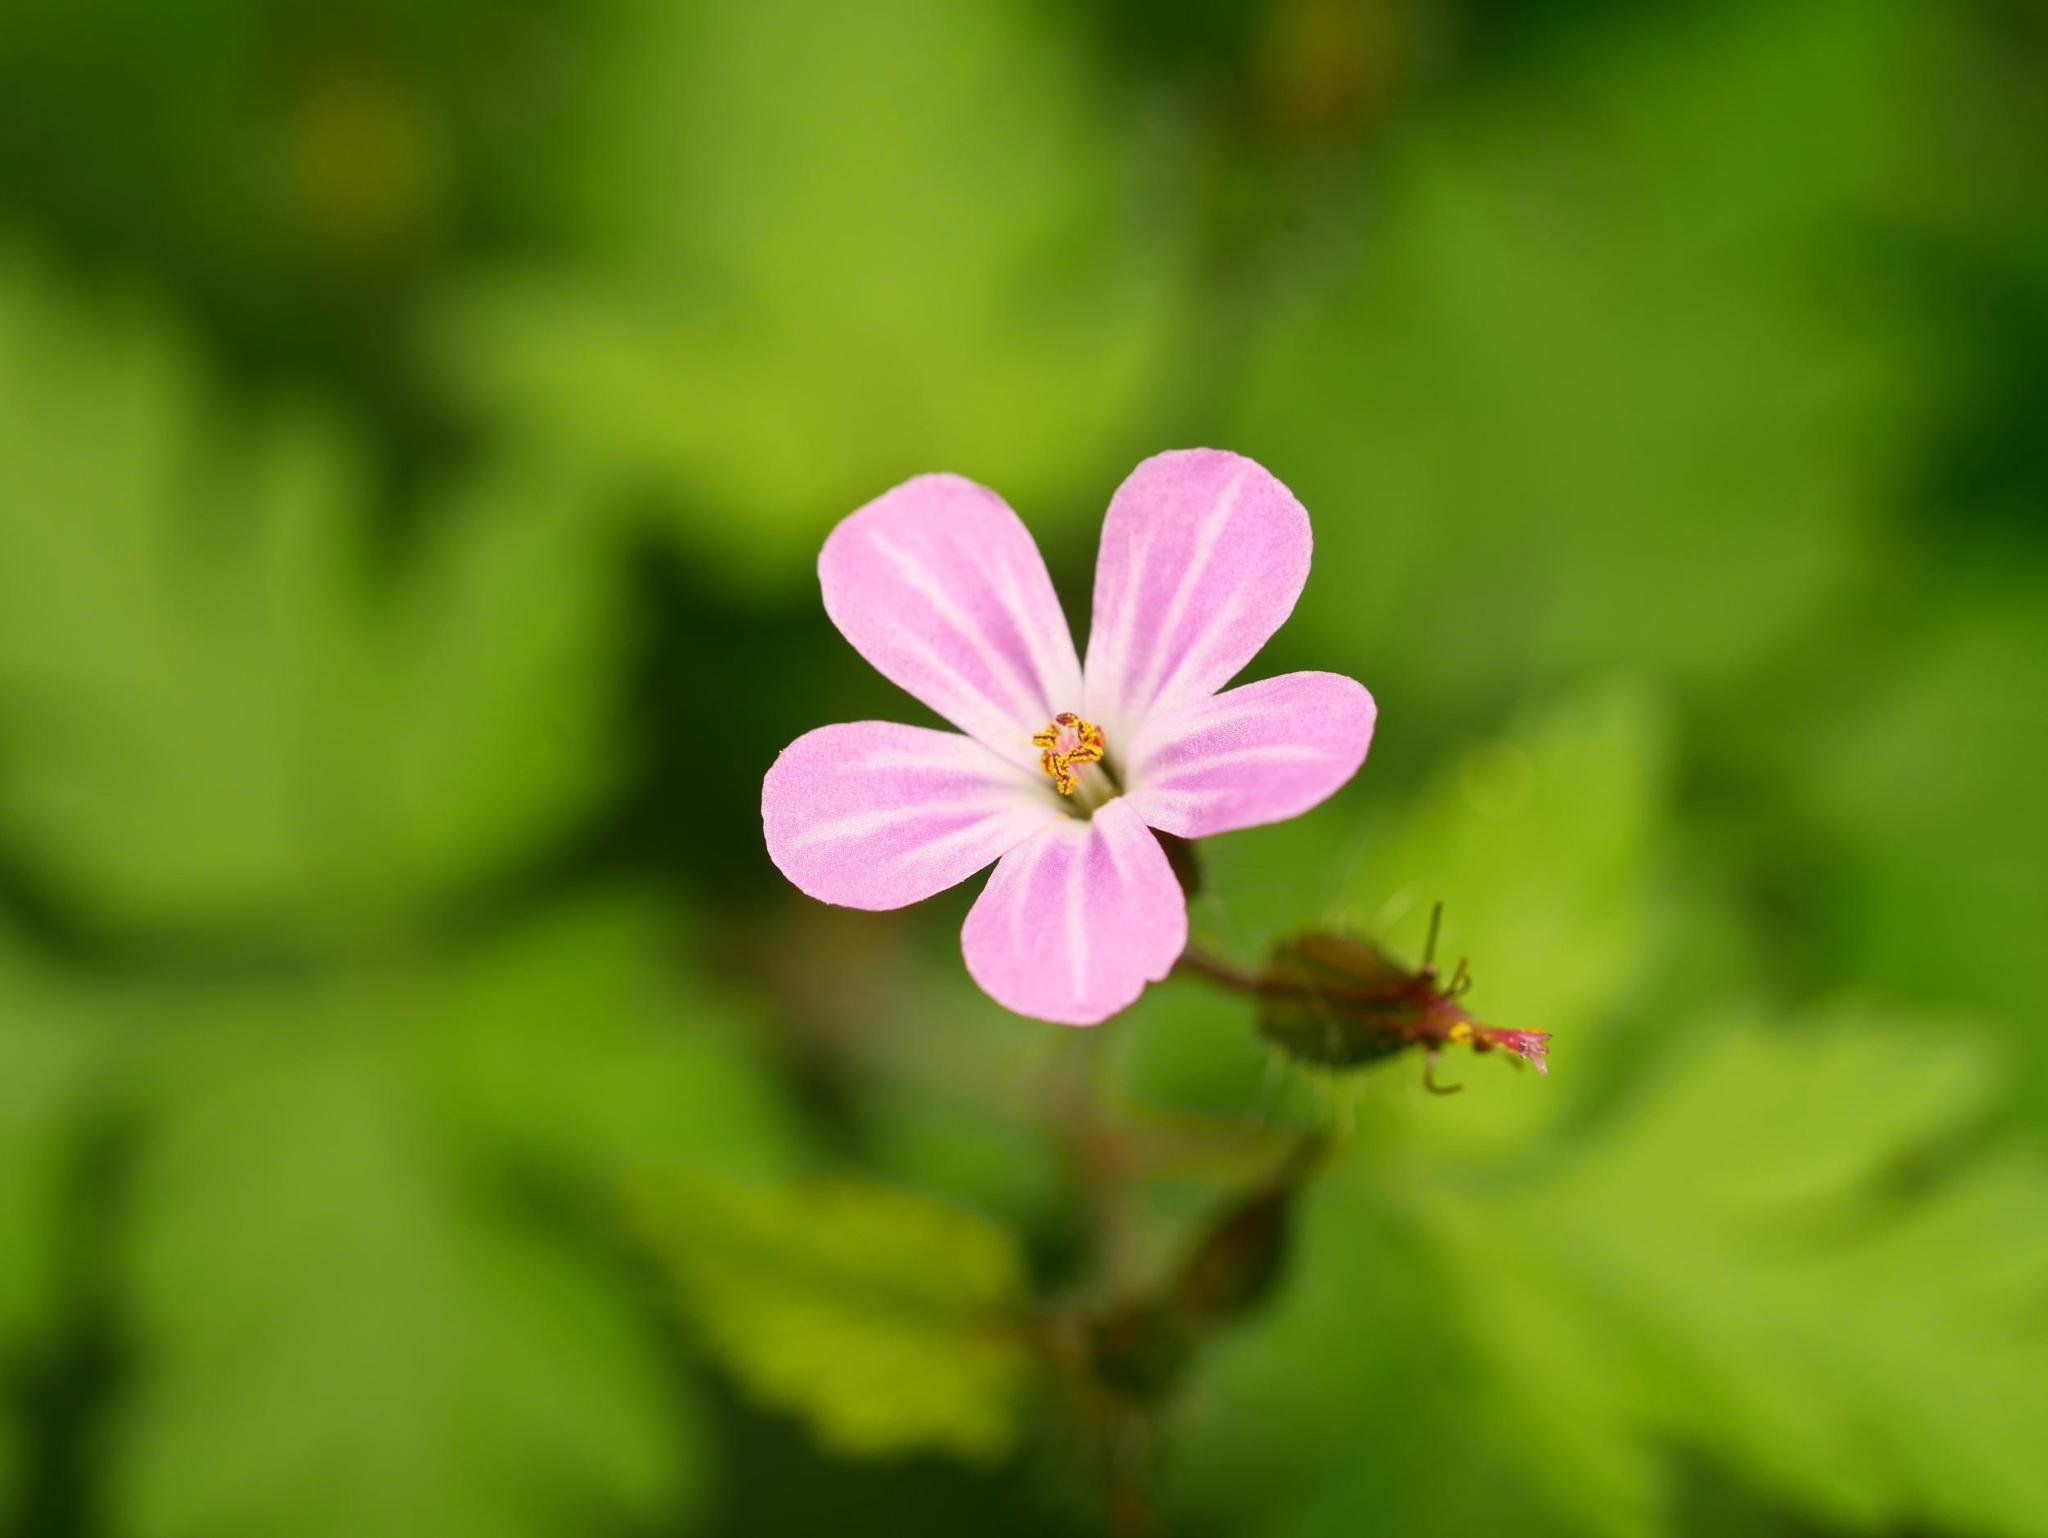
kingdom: Plantae
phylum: Tracheophyta
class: Magnoliopsida
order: Geraniales
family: Geraniaceae
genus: Geranium
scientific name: Geranium robertianum
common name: Herb-robert
